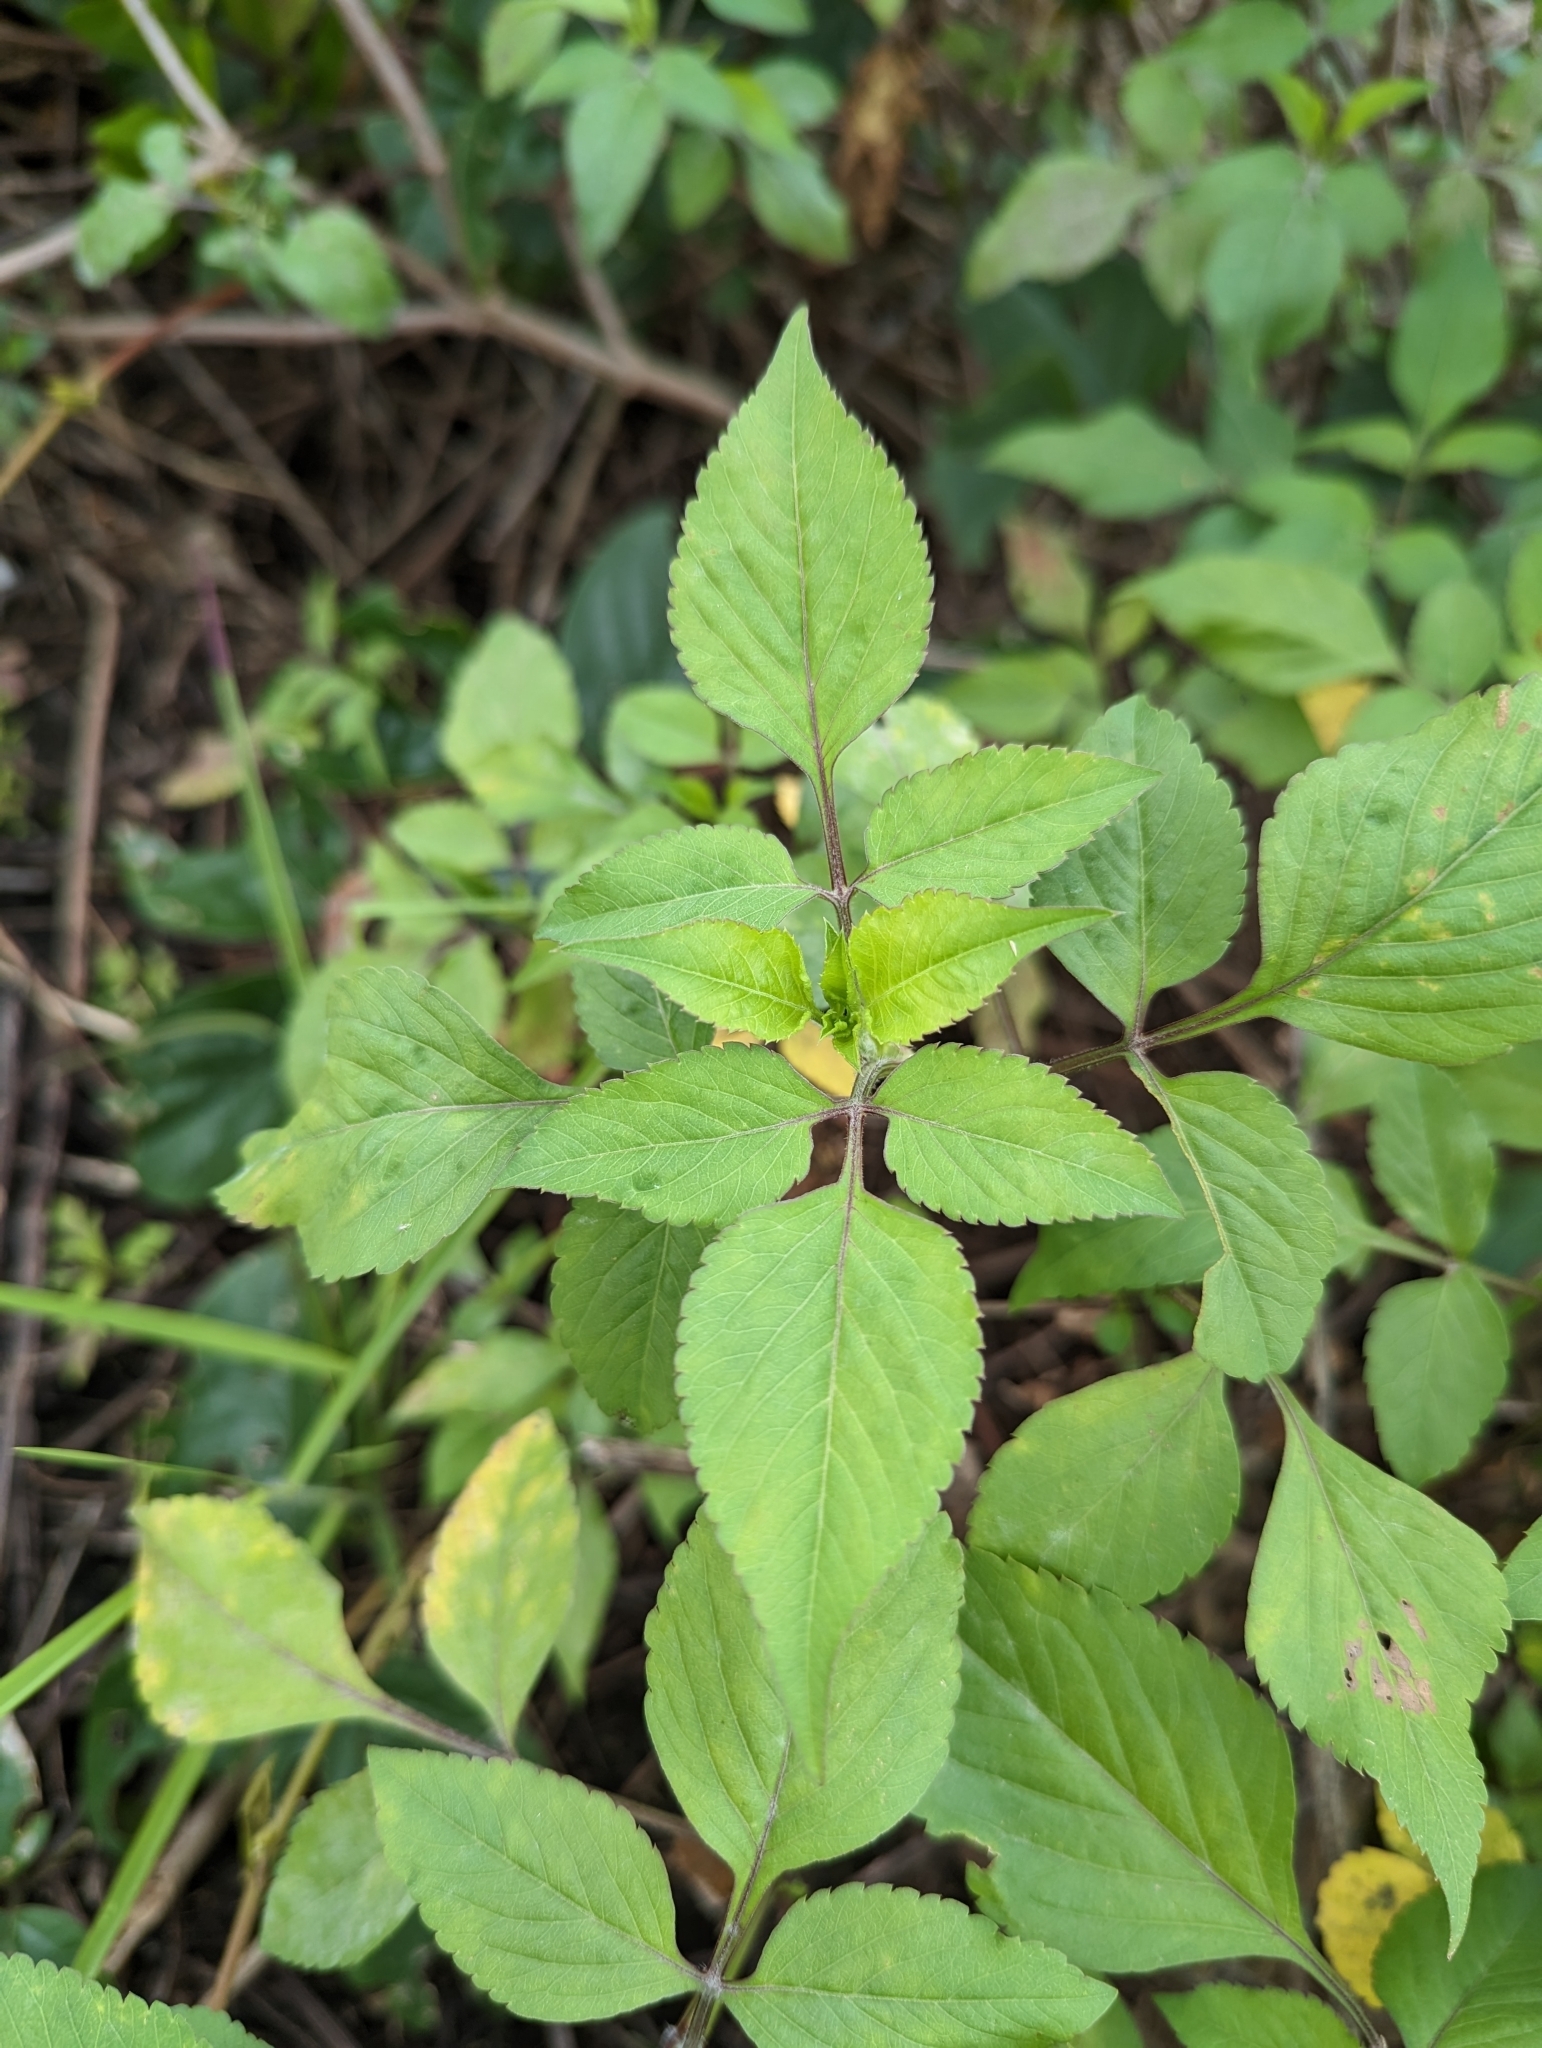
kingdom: Plantae
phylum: Tracheophyta
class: Magnoliopsida
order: Asterales
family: Asteraceae
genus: Bidens
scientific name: Bidens alba
